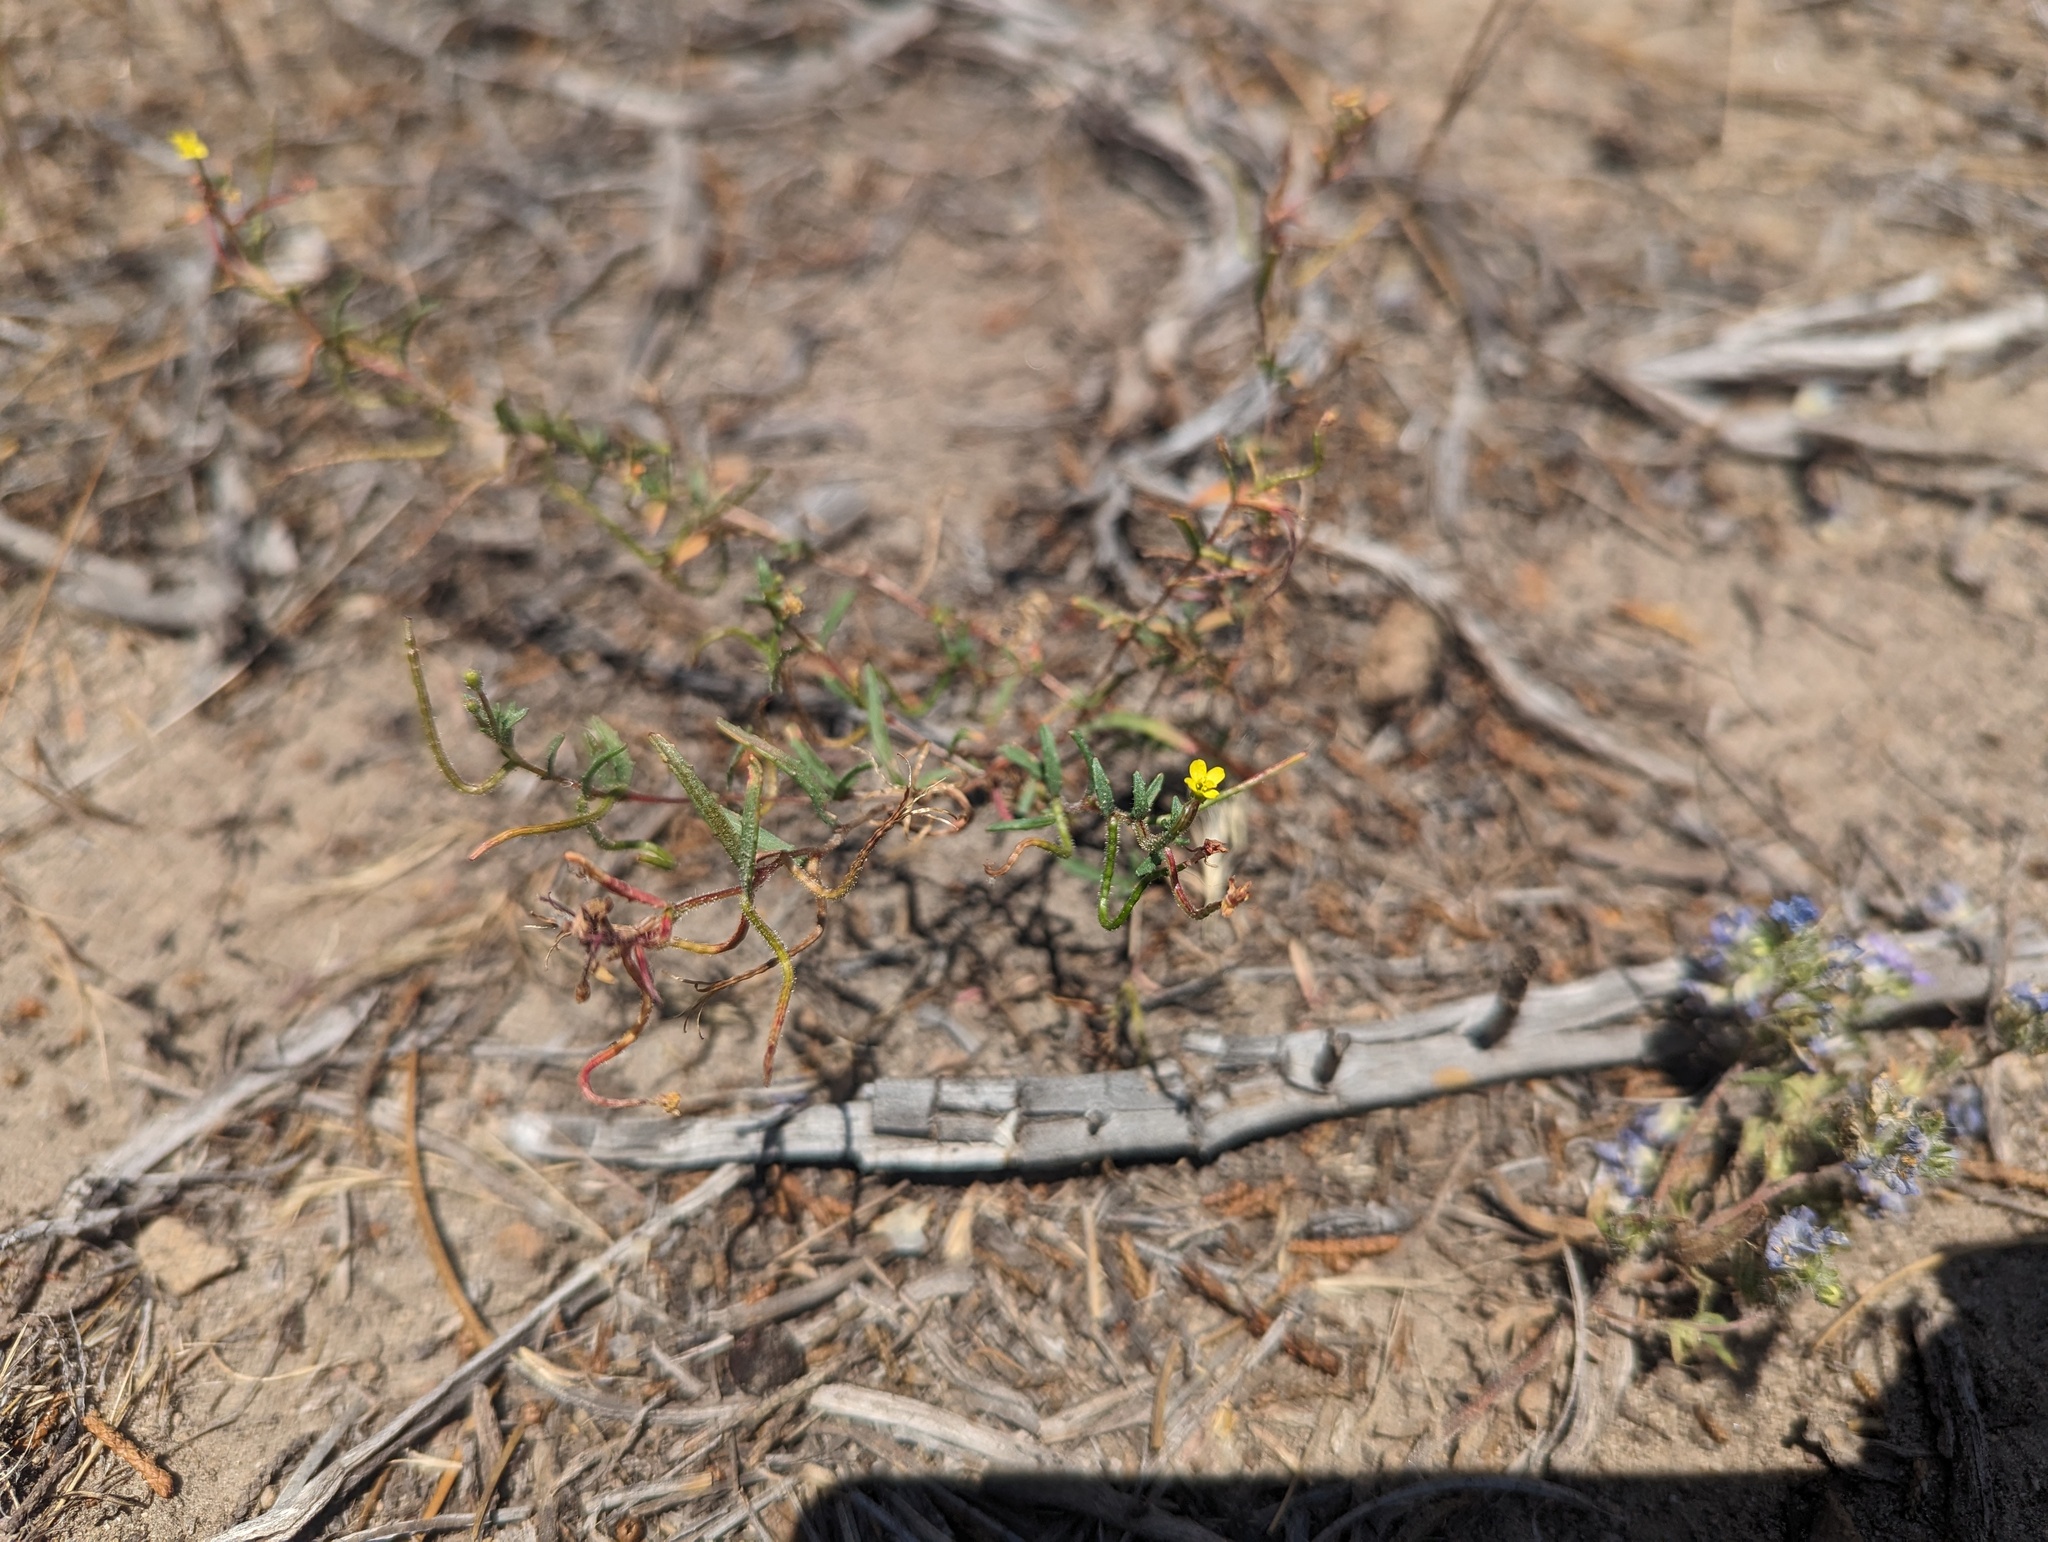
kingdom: Plantae
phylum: Tracheophyta
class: Magnoliopsida
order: Myrtales
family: Onagraceae
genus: Camissonia
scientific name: Camissonia contorta
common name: Contorted suncup
